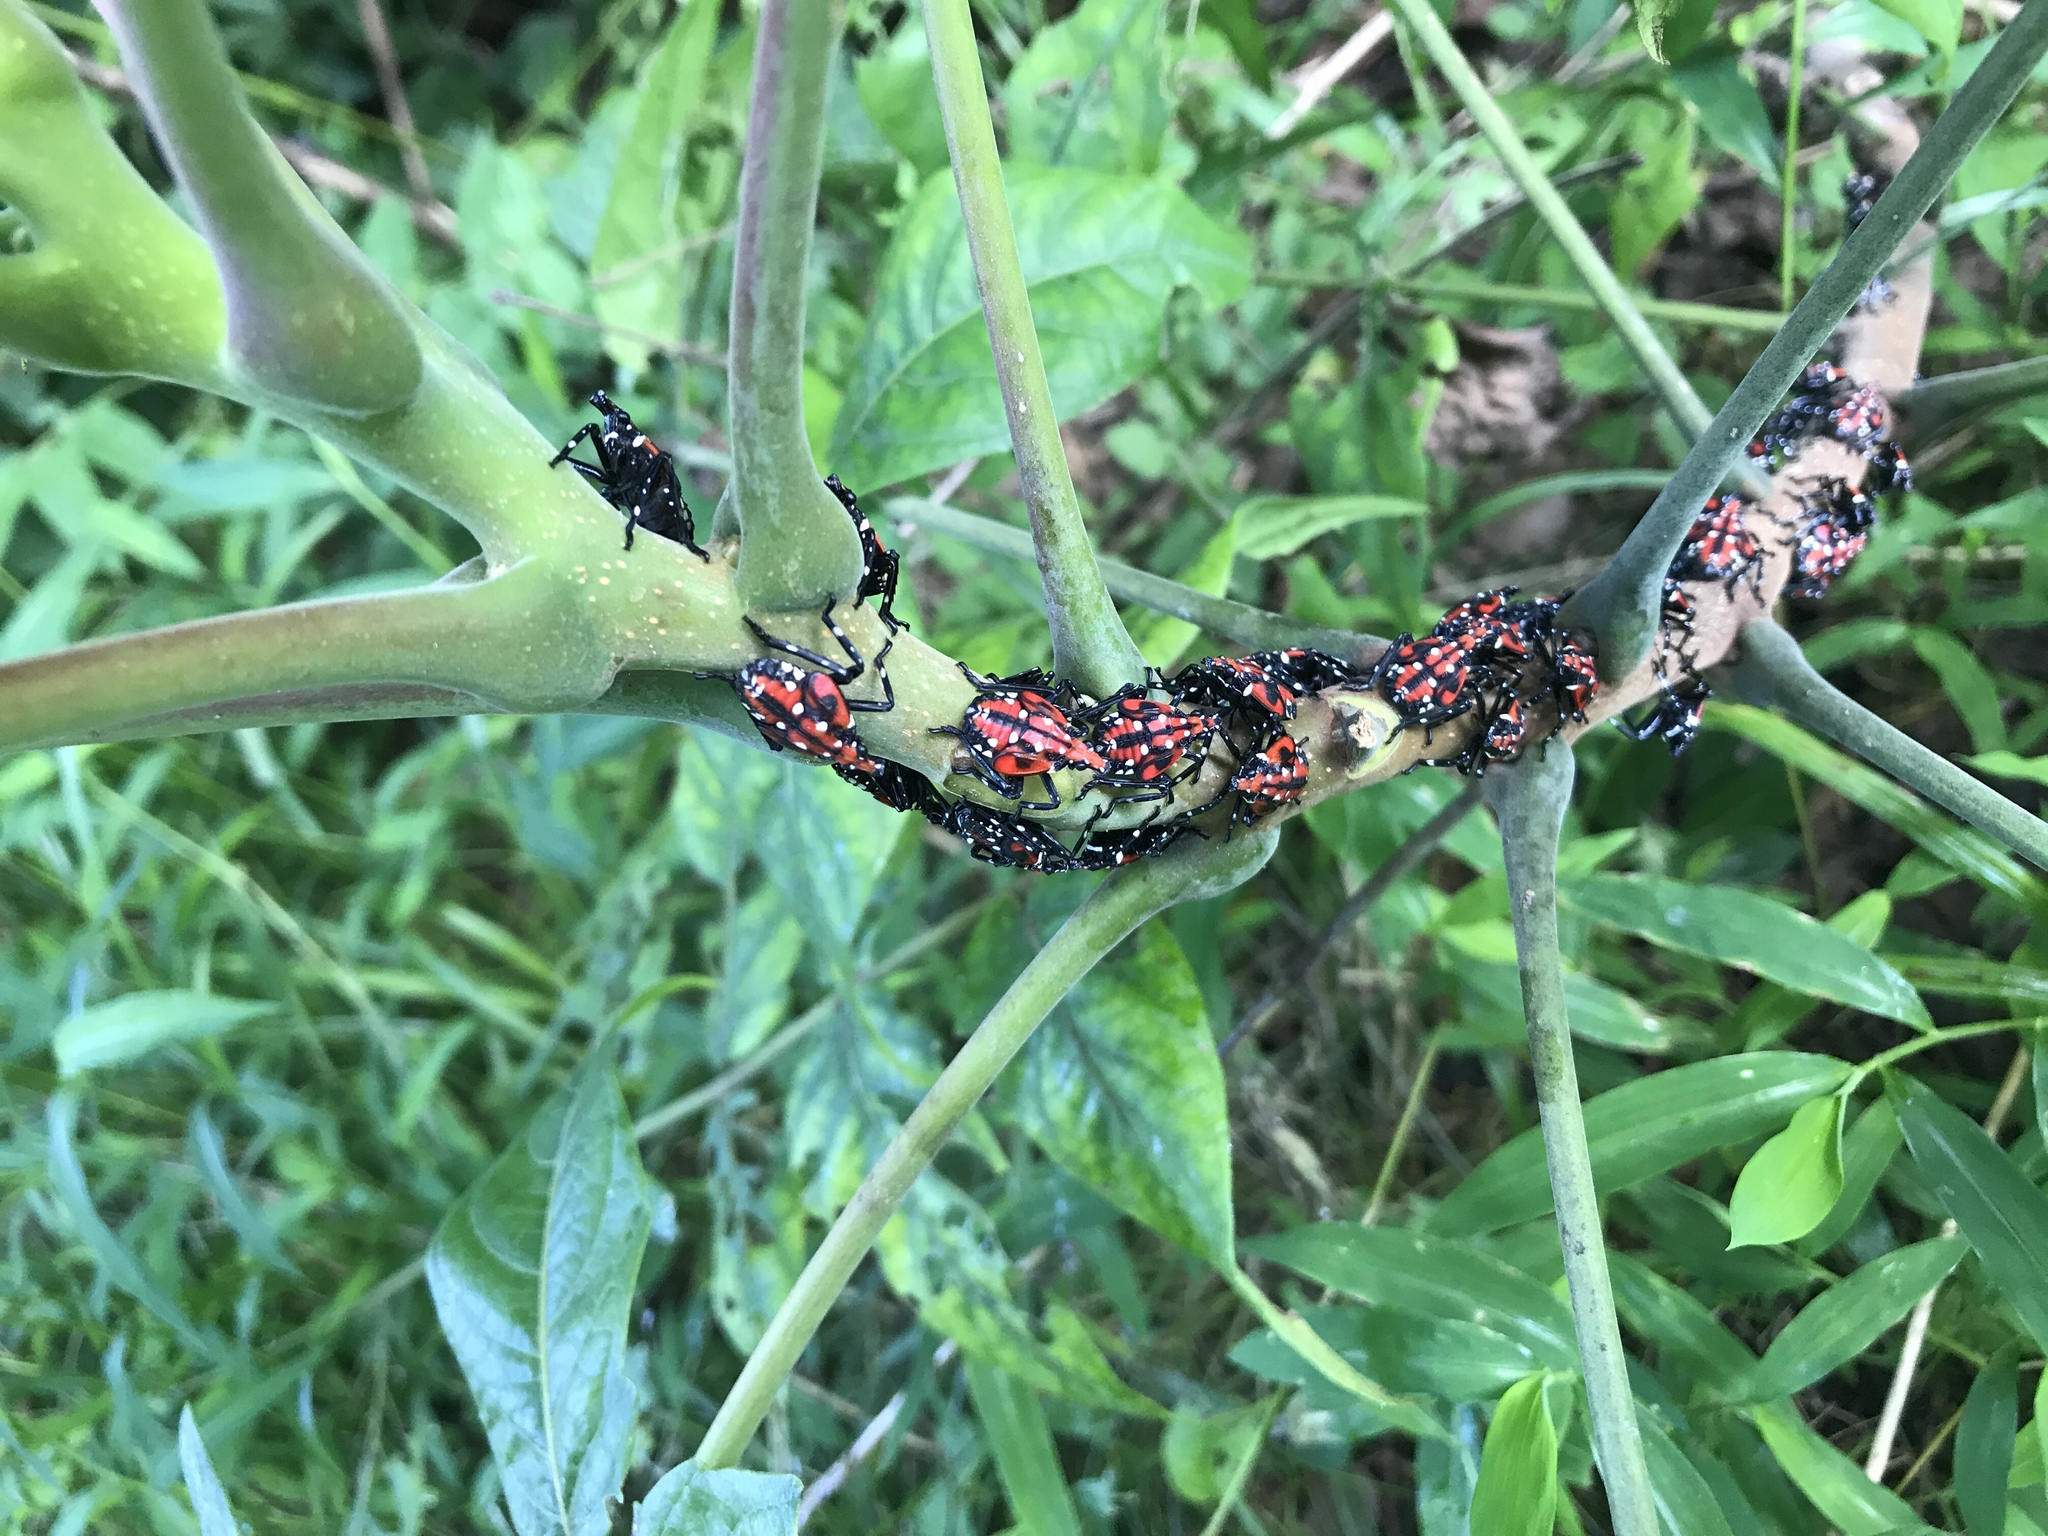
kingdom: Animalia
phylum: Arthropoda
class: Insecta
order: Hemiptera
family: Fulgoridae
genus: Lycorma
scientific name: Lycorma delicatula
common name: Spotted lanternfly
